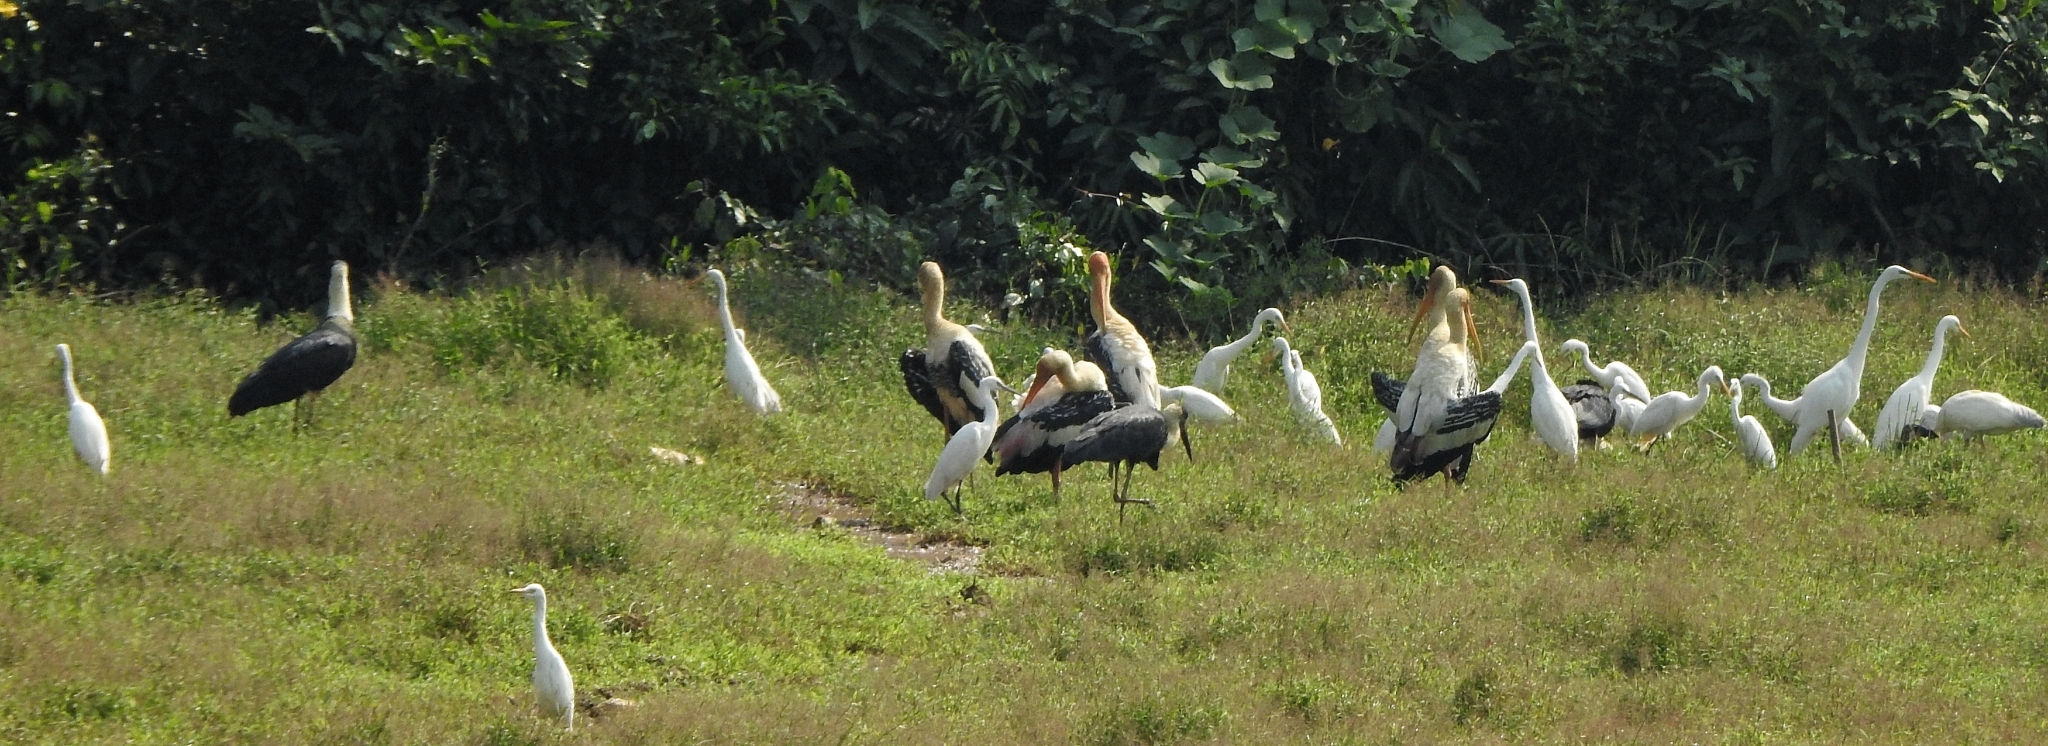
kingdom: Animalia
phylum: Chordata
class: Aves
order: Pelecaniformes
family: Ardeidae
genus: Bubulcus
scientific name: Bubulcus coromandus
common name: Eastern cattle egret
